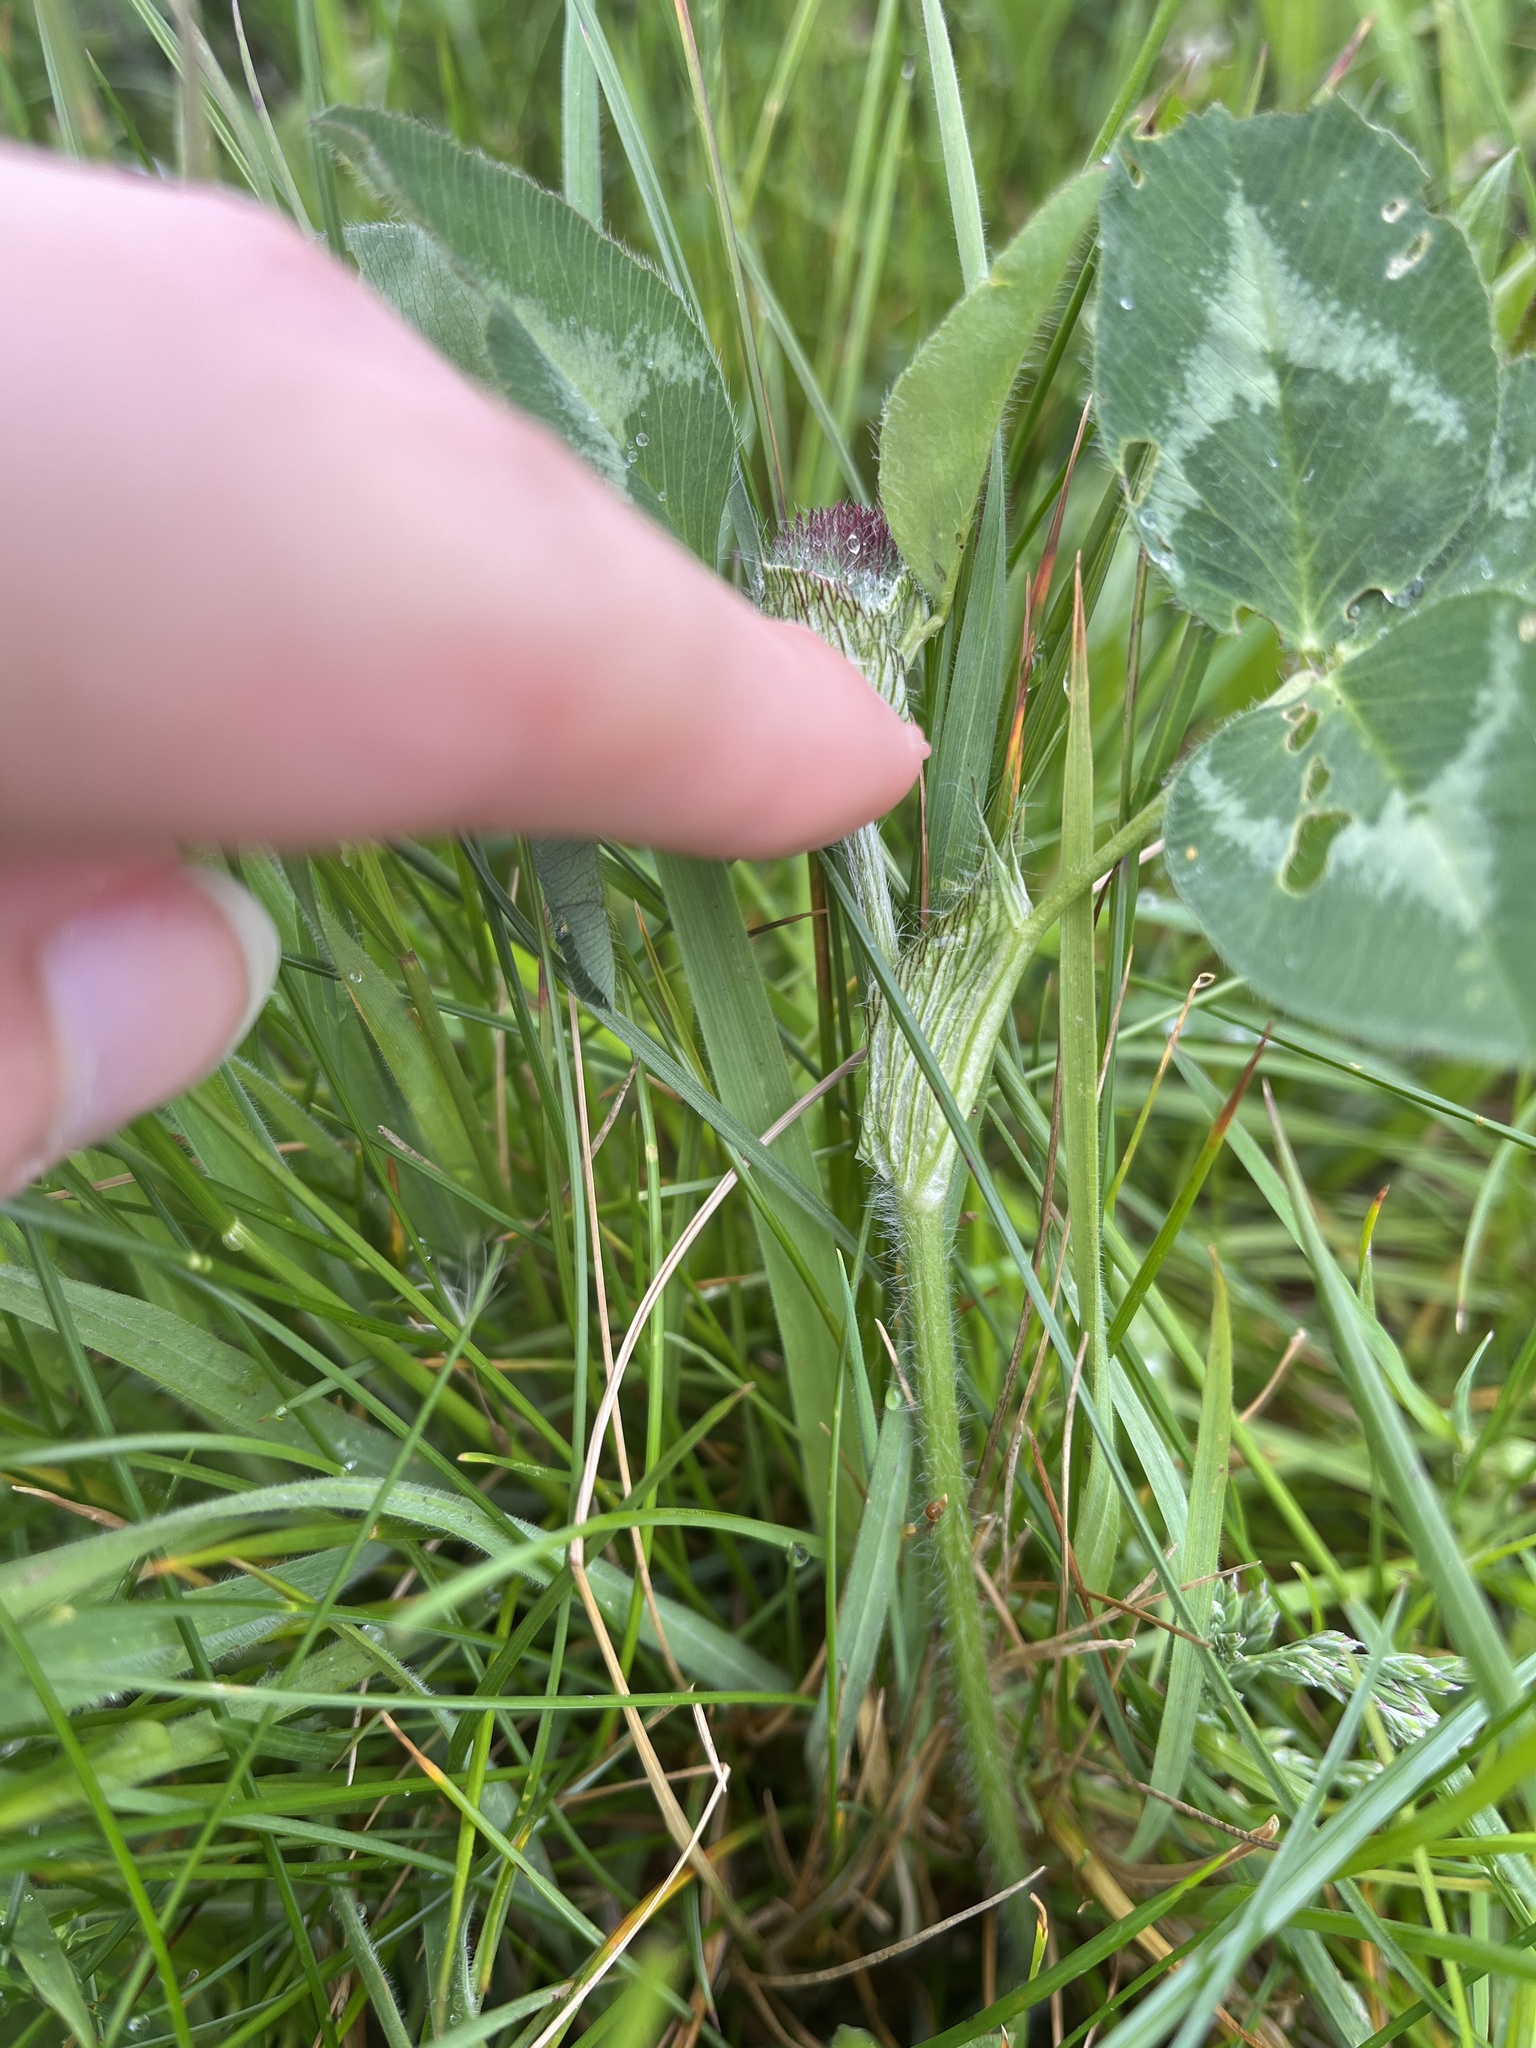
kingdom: Plantae
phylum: Tracheophyta
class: Magnoliopsida
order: Fabales
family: Fabaceae
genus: Trifolium
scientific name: Trifolium pratense
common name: Red clover
